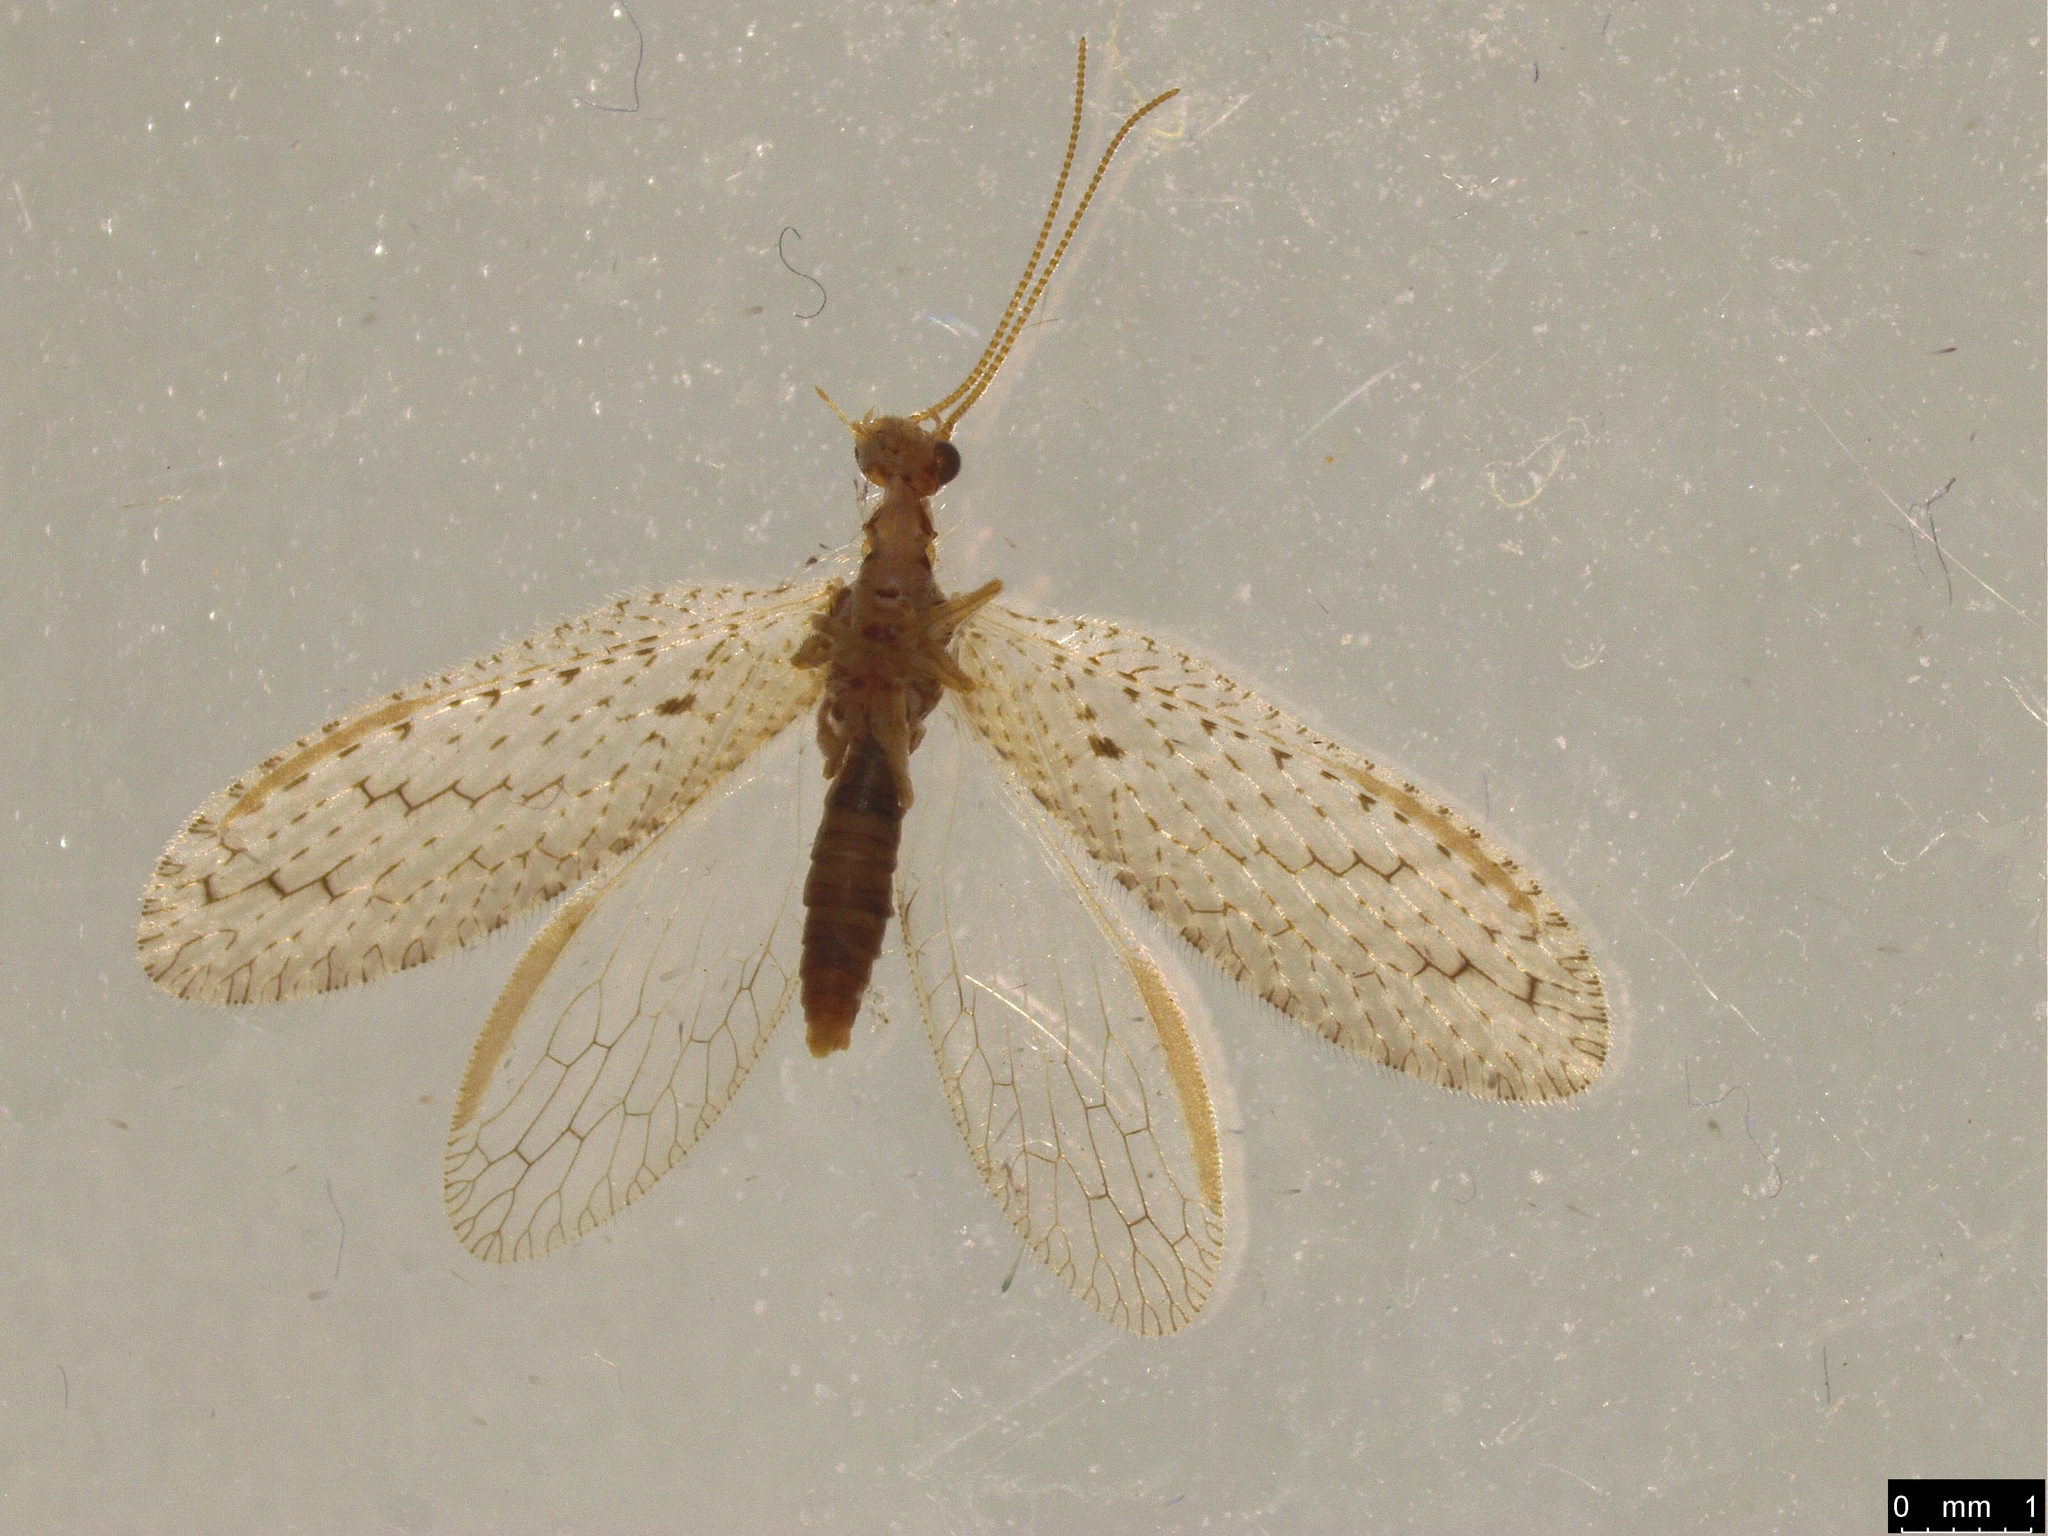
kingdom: Animalia
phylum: Arthropoda
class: Insecta
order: Neuroptera
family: Hemerobiidae
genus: Micromus
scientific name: Micromus tasmaniae
